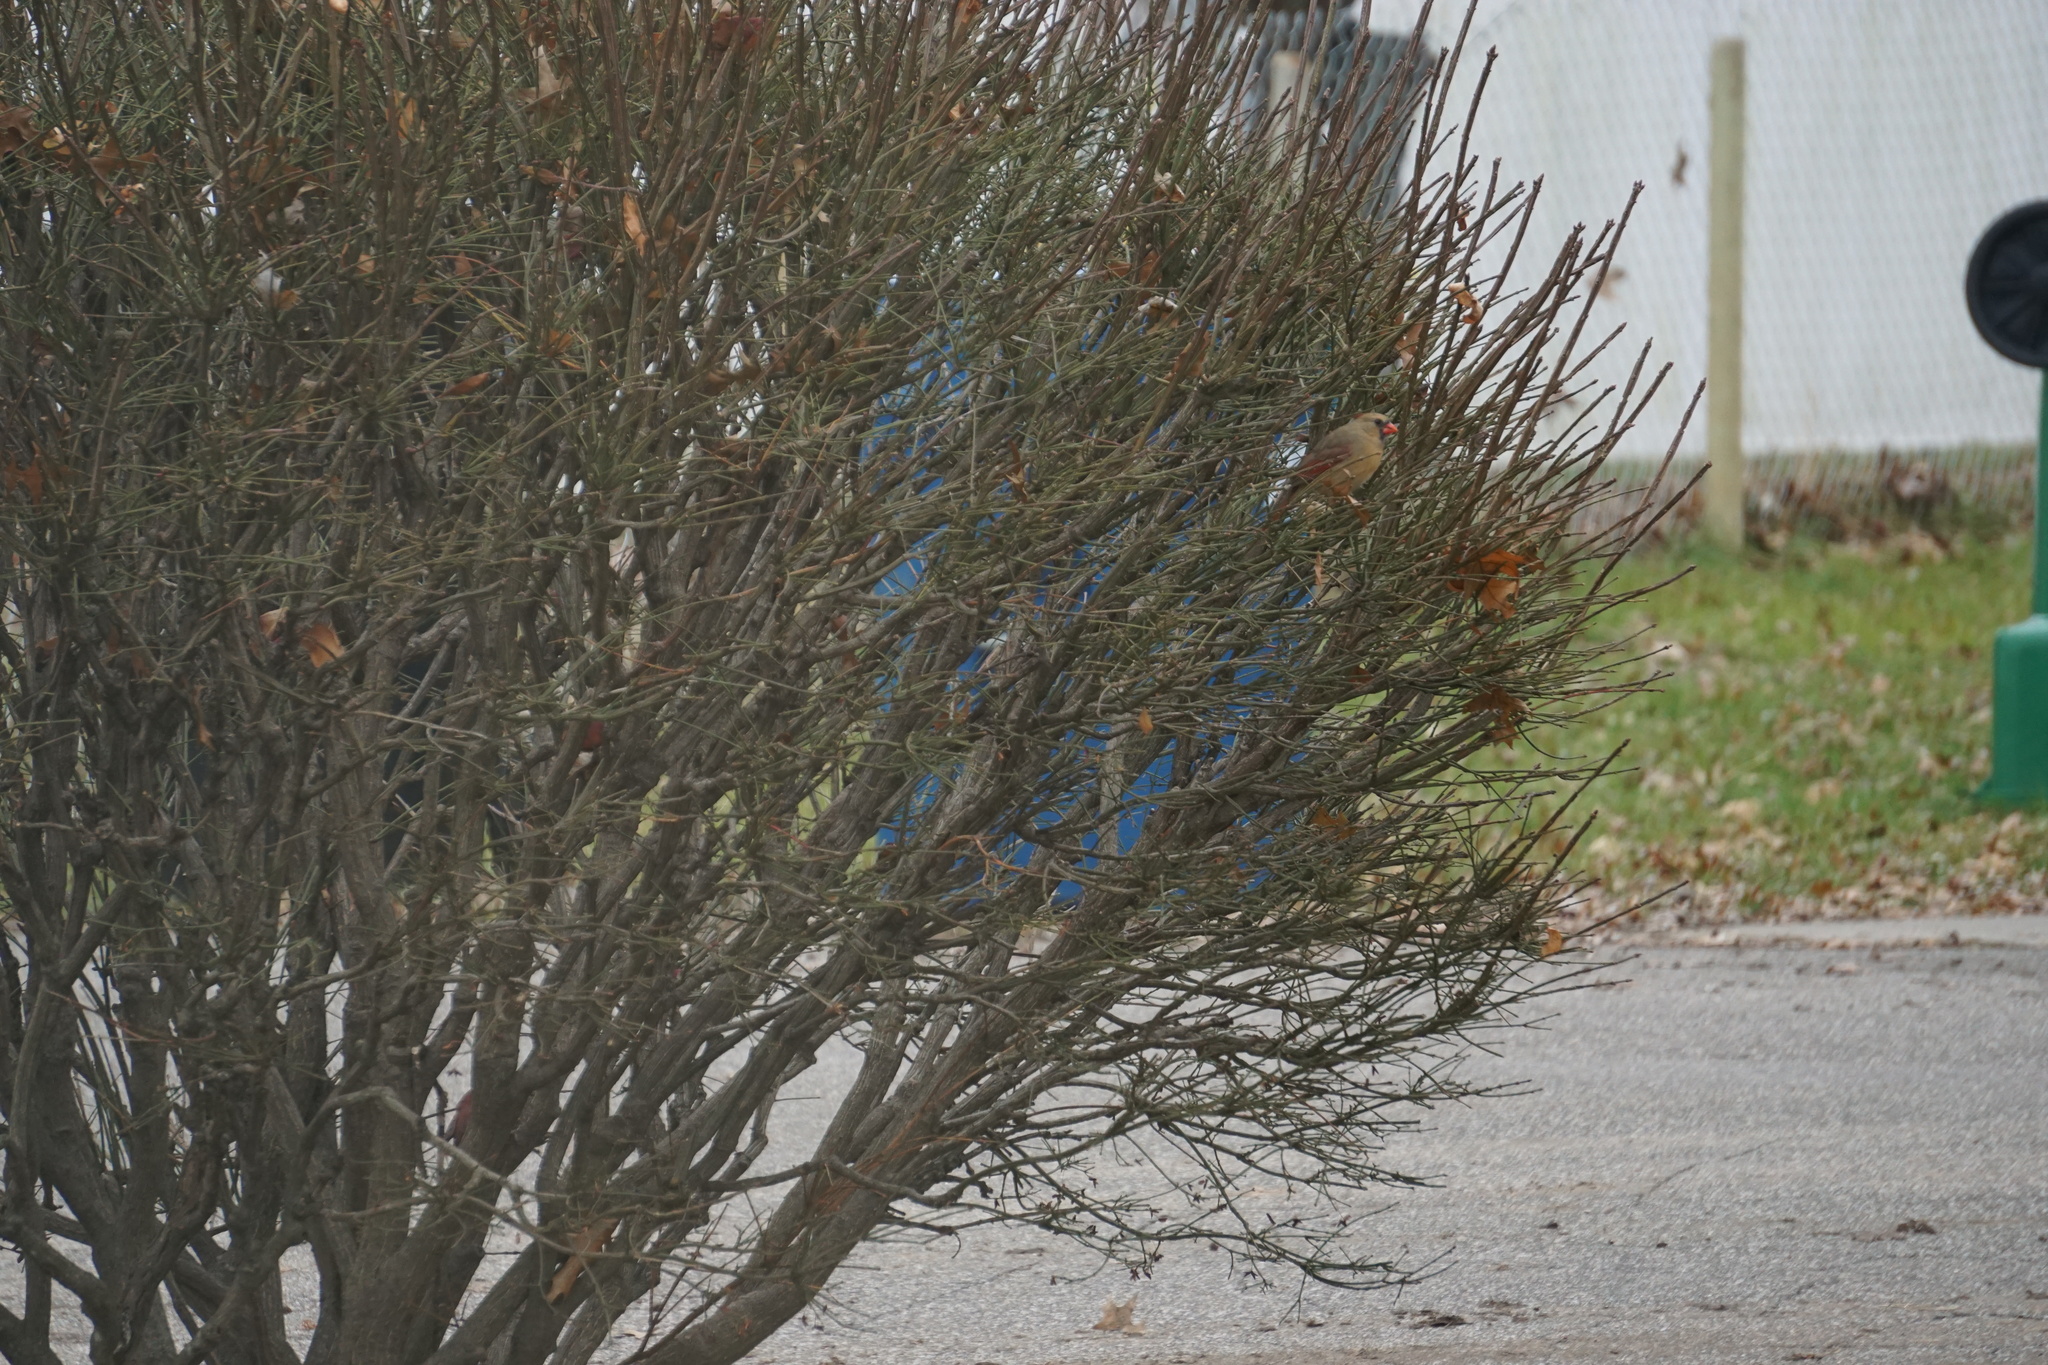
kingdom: Animalia
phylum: Chordata
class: Aves
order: Passeriformes
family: Cardinalidae
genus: Cardinalis
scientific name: Cardinalis cardinalis
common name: Northern cardinal
